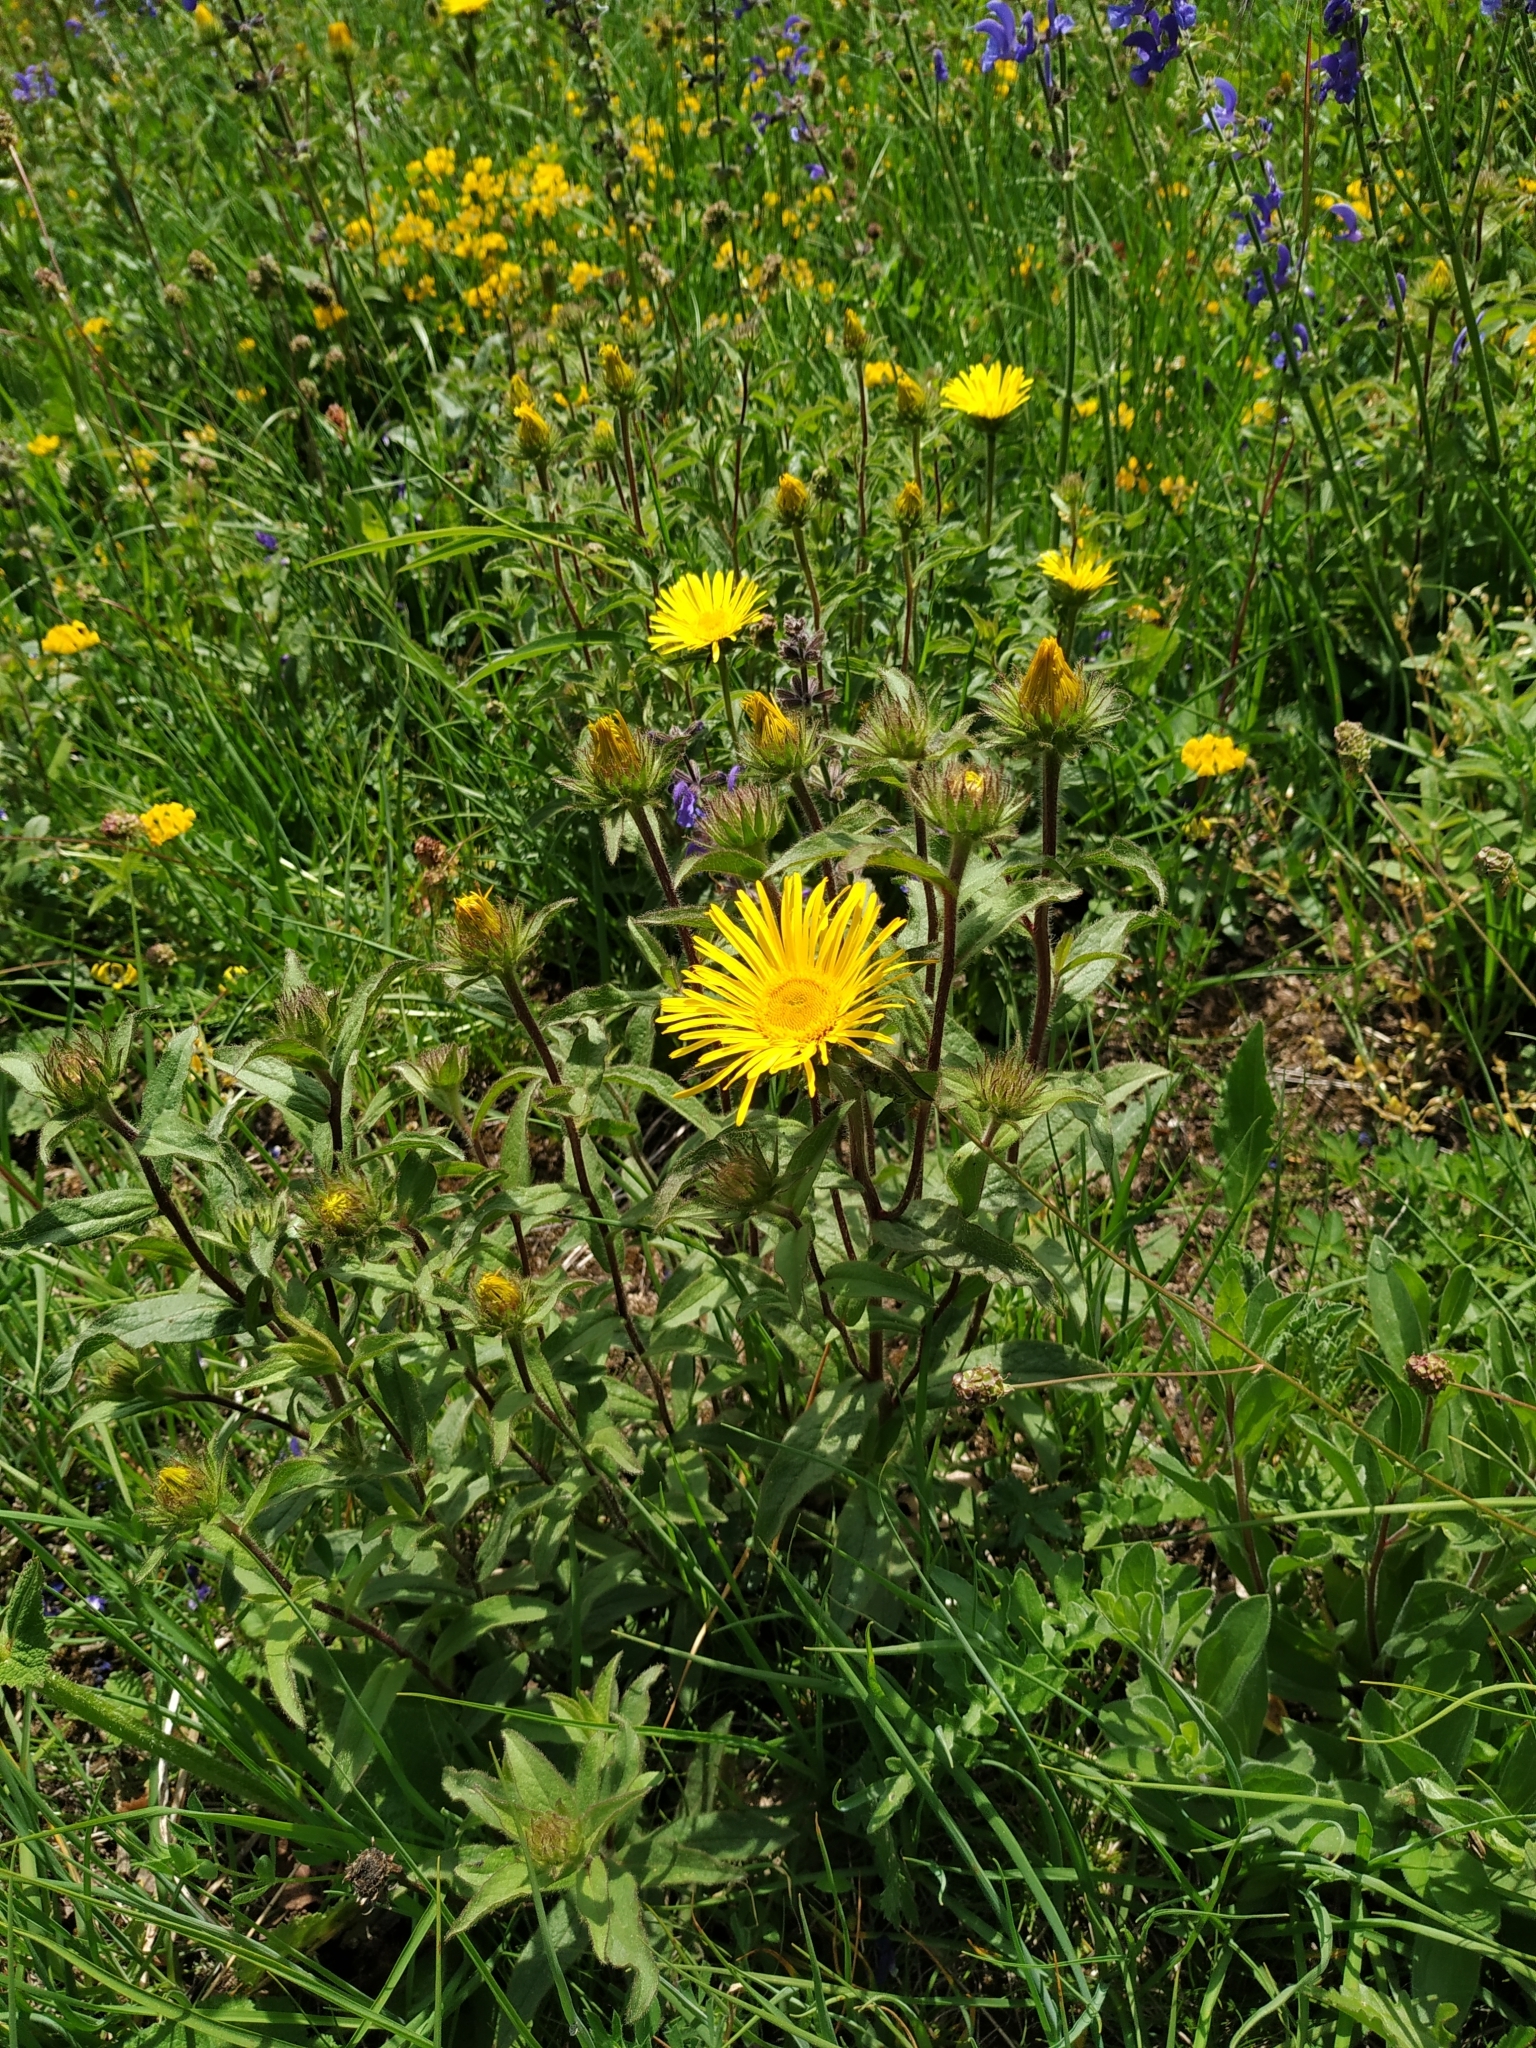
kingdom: Plantae
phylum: Tracheophyta
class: Magnoliopsida
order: Asterales
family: Asteraceae
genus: Pentanema
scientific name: Pentanema hirtum
